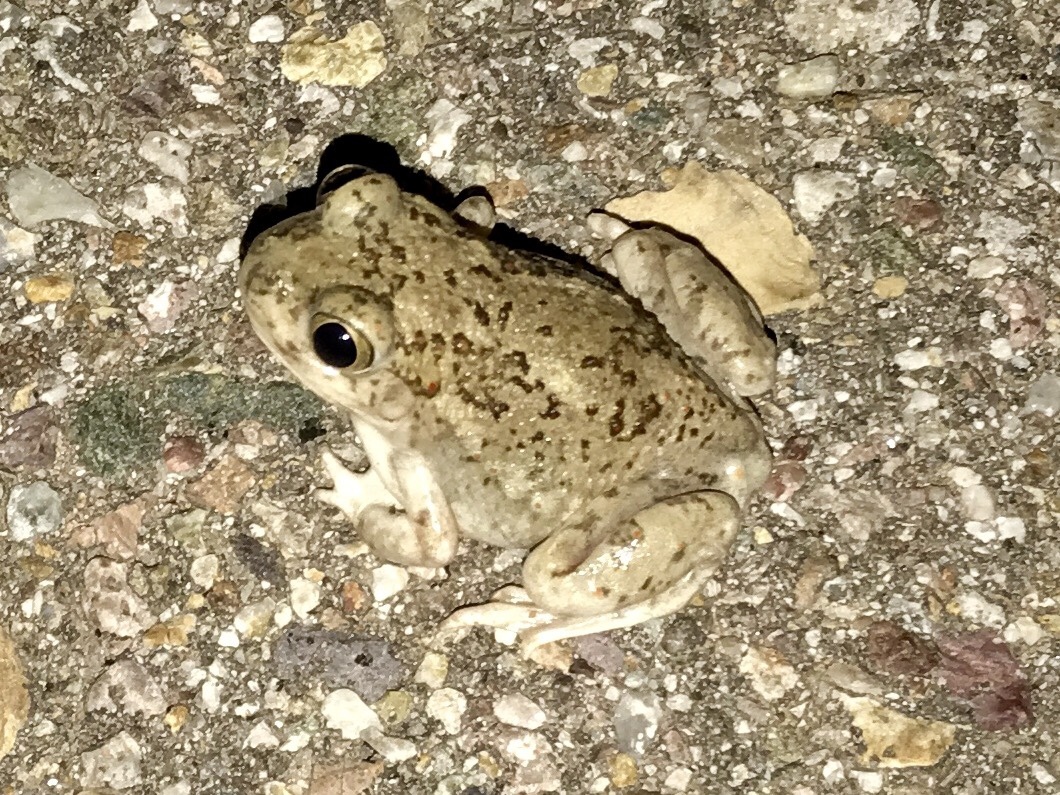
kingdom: Animalia
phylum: Chordata
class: Amphibia
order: Anura
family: Scaphiopodidae
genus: Spea
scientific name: Spea multiplicata
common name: Mexican spadefoot
